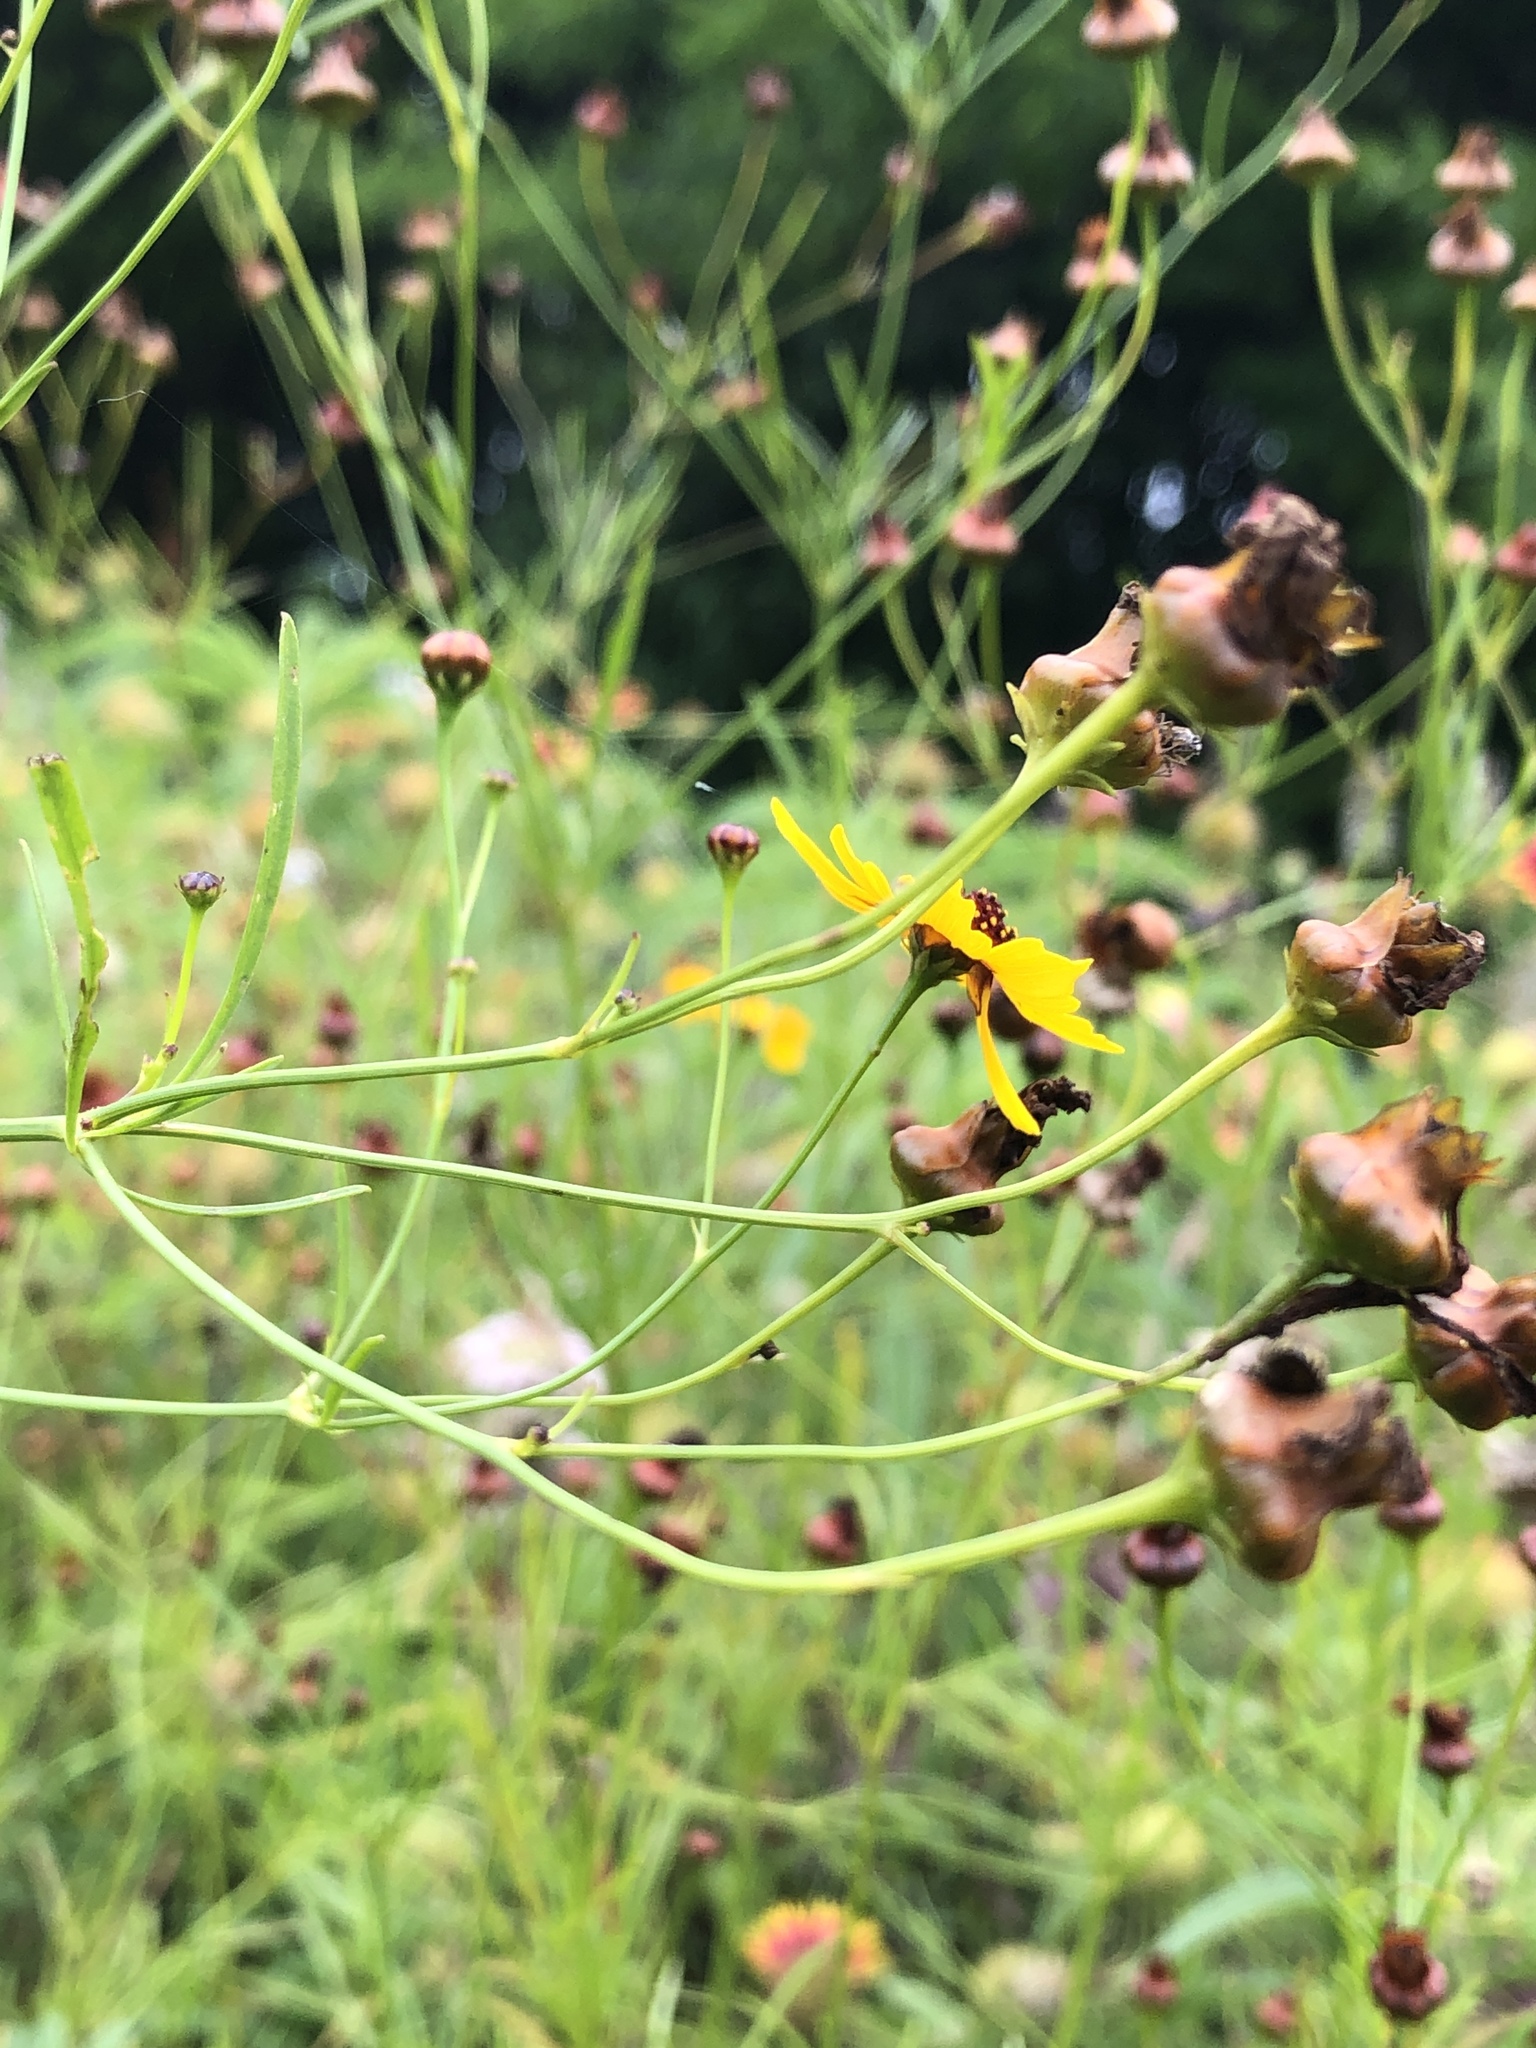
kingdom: Plantae
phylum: Tracheophyta
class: Magnoliopsida
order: Asterales
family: Asteraceae
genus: Coreopsis
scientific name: Coreopsis tinctoria
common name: Garden tickseed
